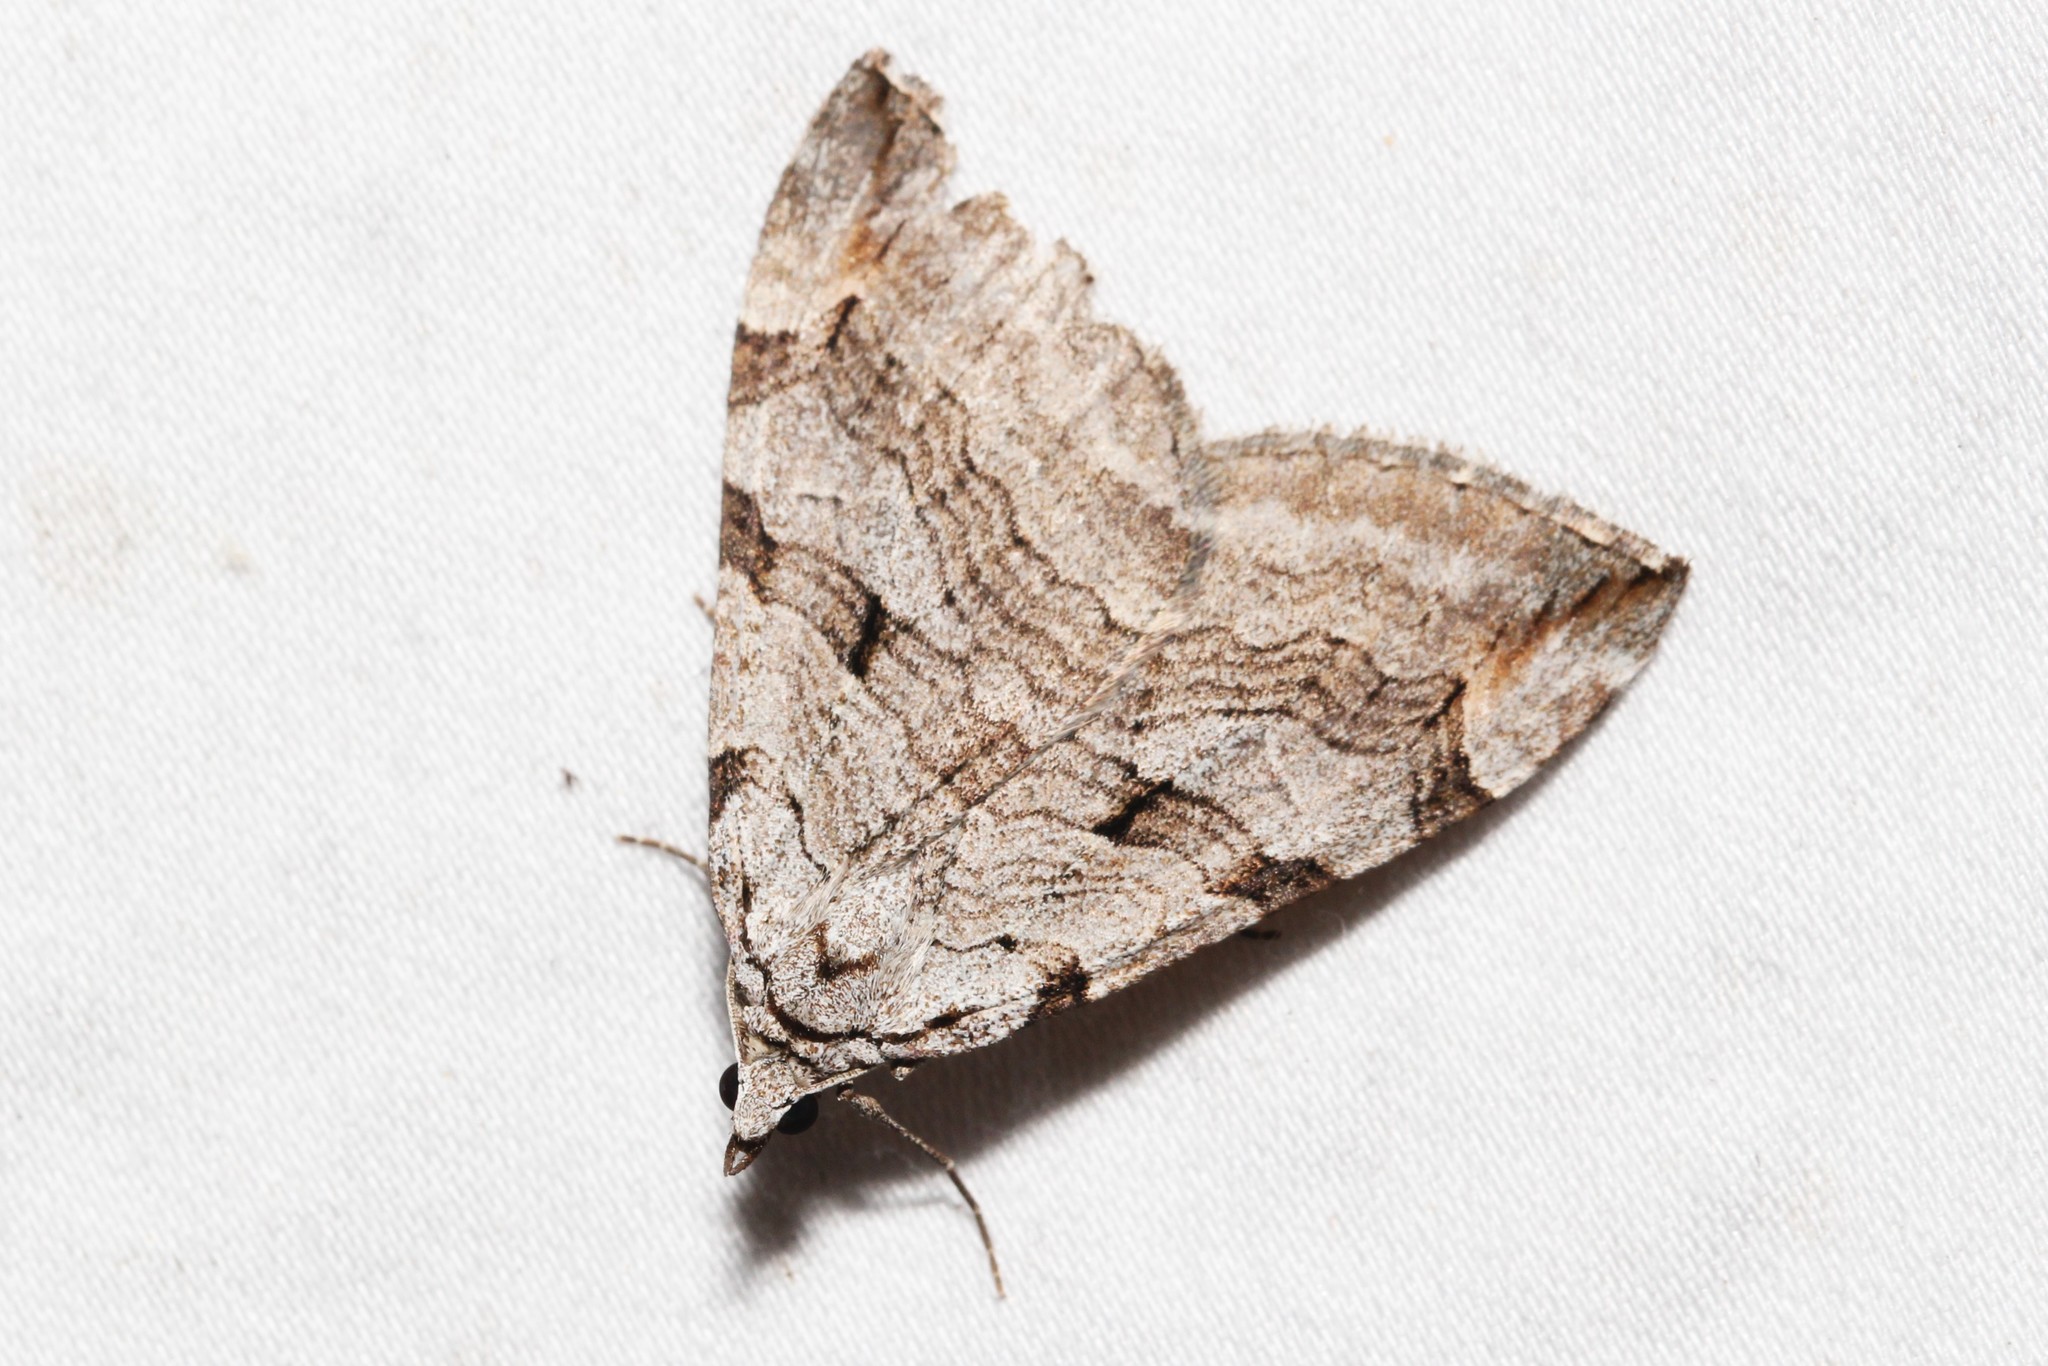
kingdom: Animalia
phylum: Arthropoda
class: Insecta
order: Lepidoptera
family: Geometridae
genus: Aplocera
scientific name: Aplocera plagiata
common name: Treble-bar
